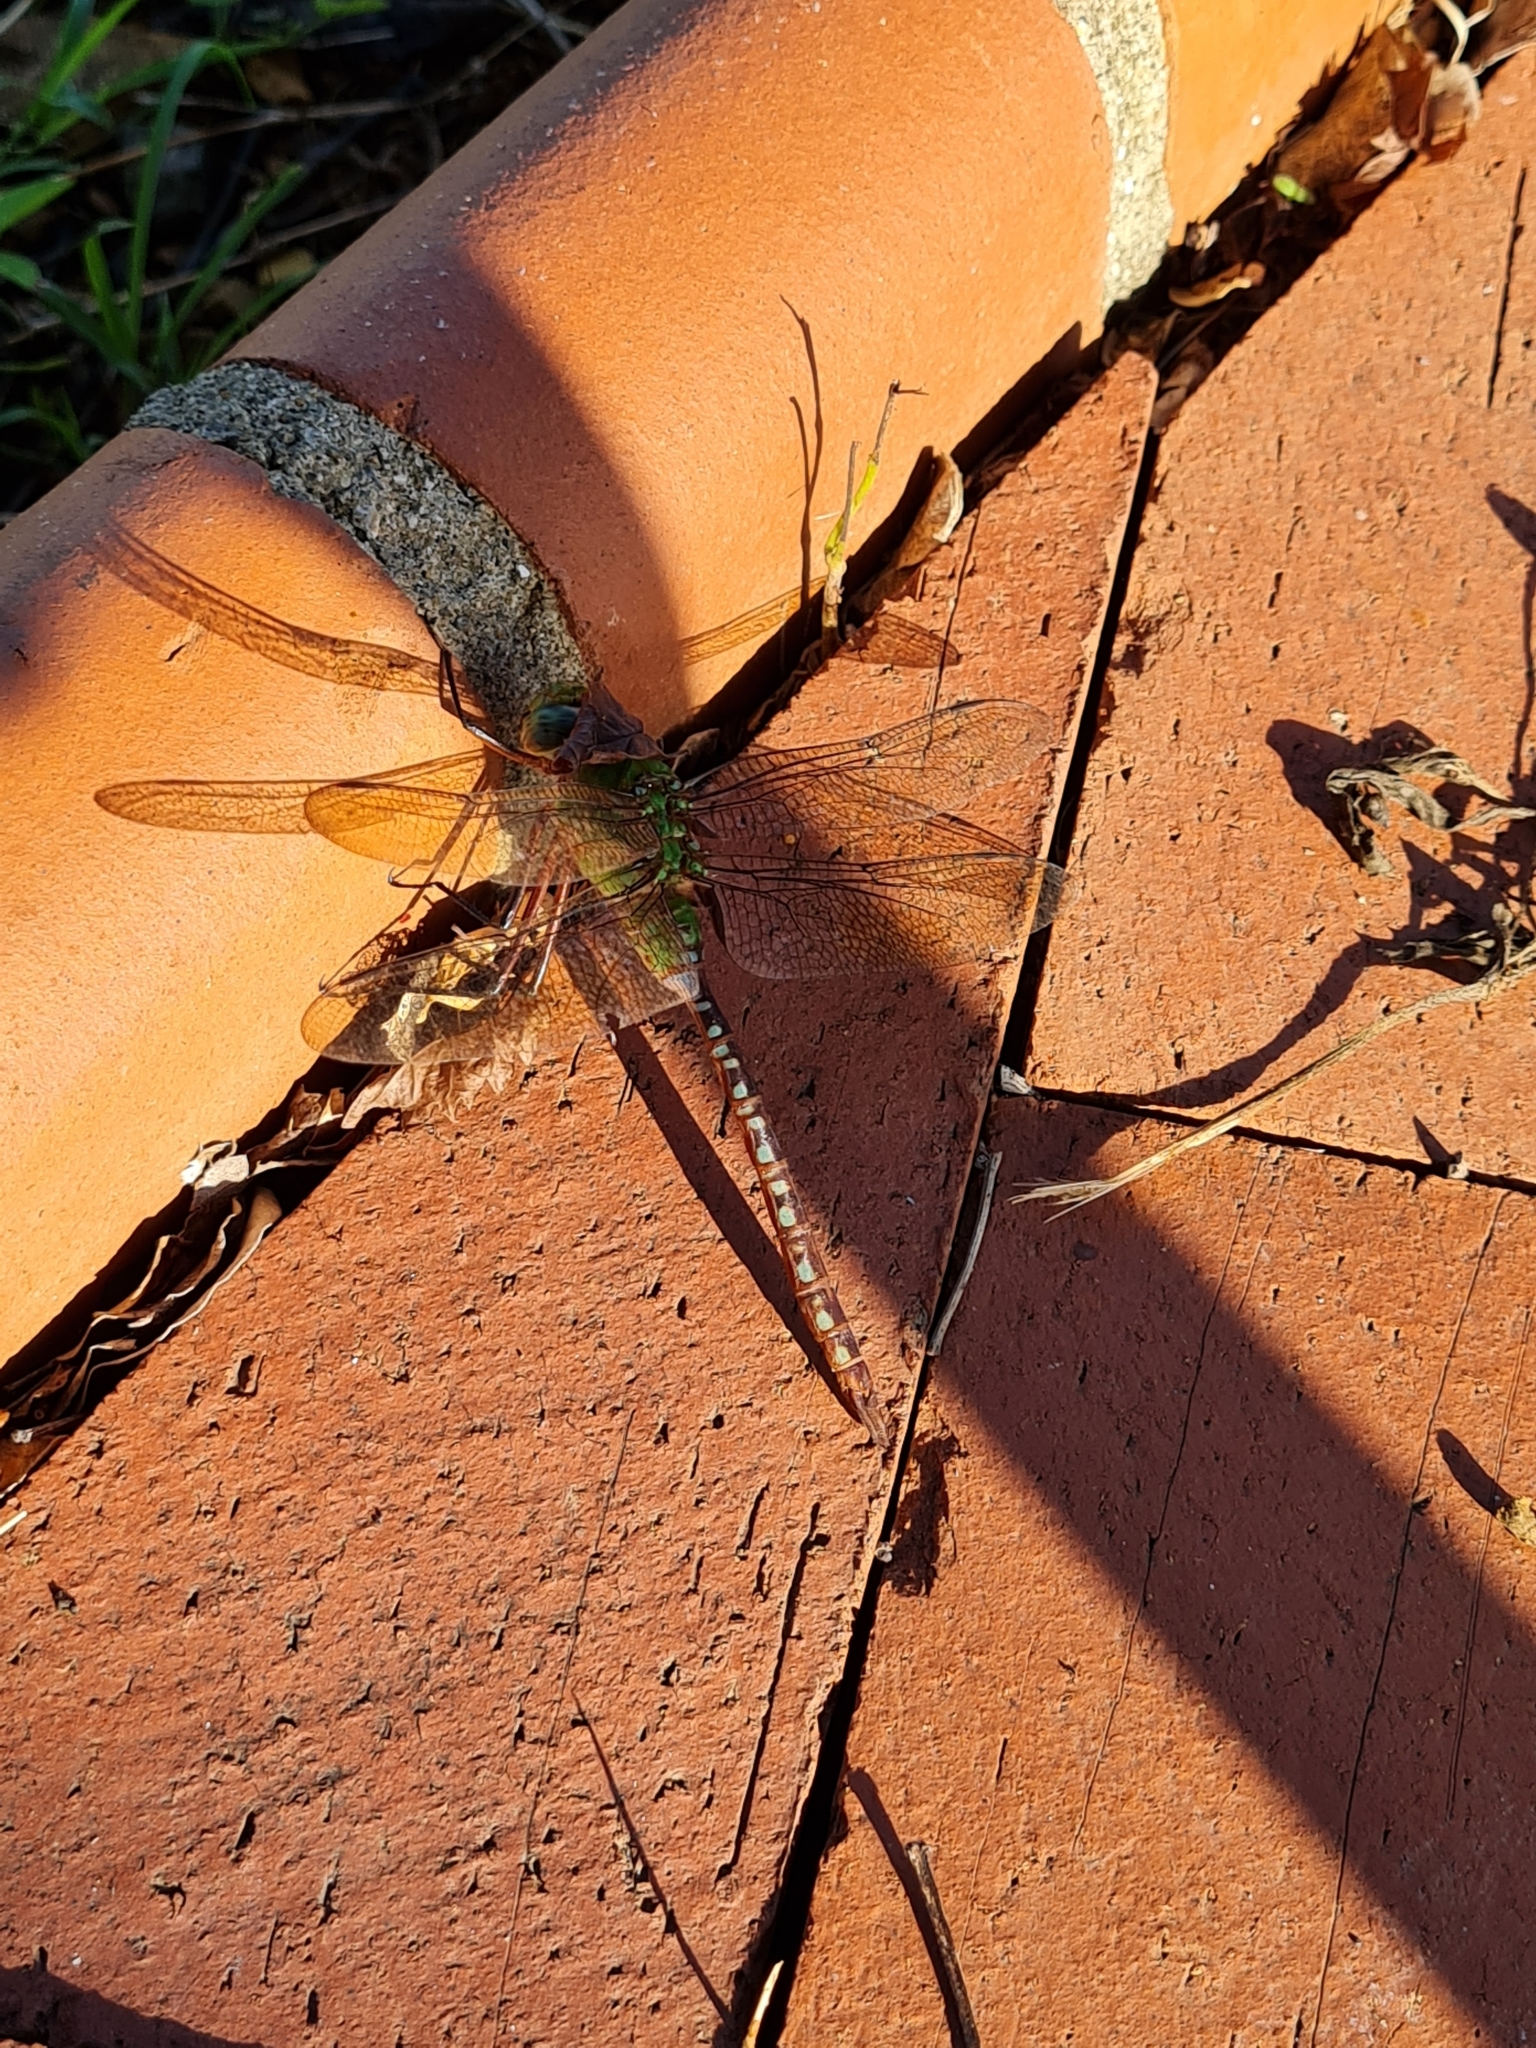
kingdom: Animalia
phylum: Arthropoda
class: Insecta
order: Odonata
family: Aeshnidae
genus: Anax
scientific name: Anax concolor
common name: Blue-spotted comet darner
